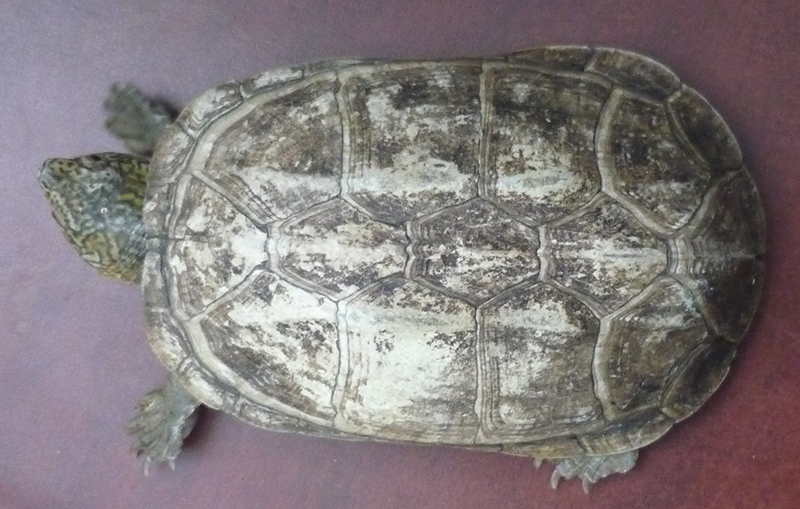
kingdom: Animalia
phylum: Chordata
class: Testudines
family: Kinosternidae
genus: Kinosternon
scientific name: Kinosternon oaxacae
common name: Oaxaca mud turtle
